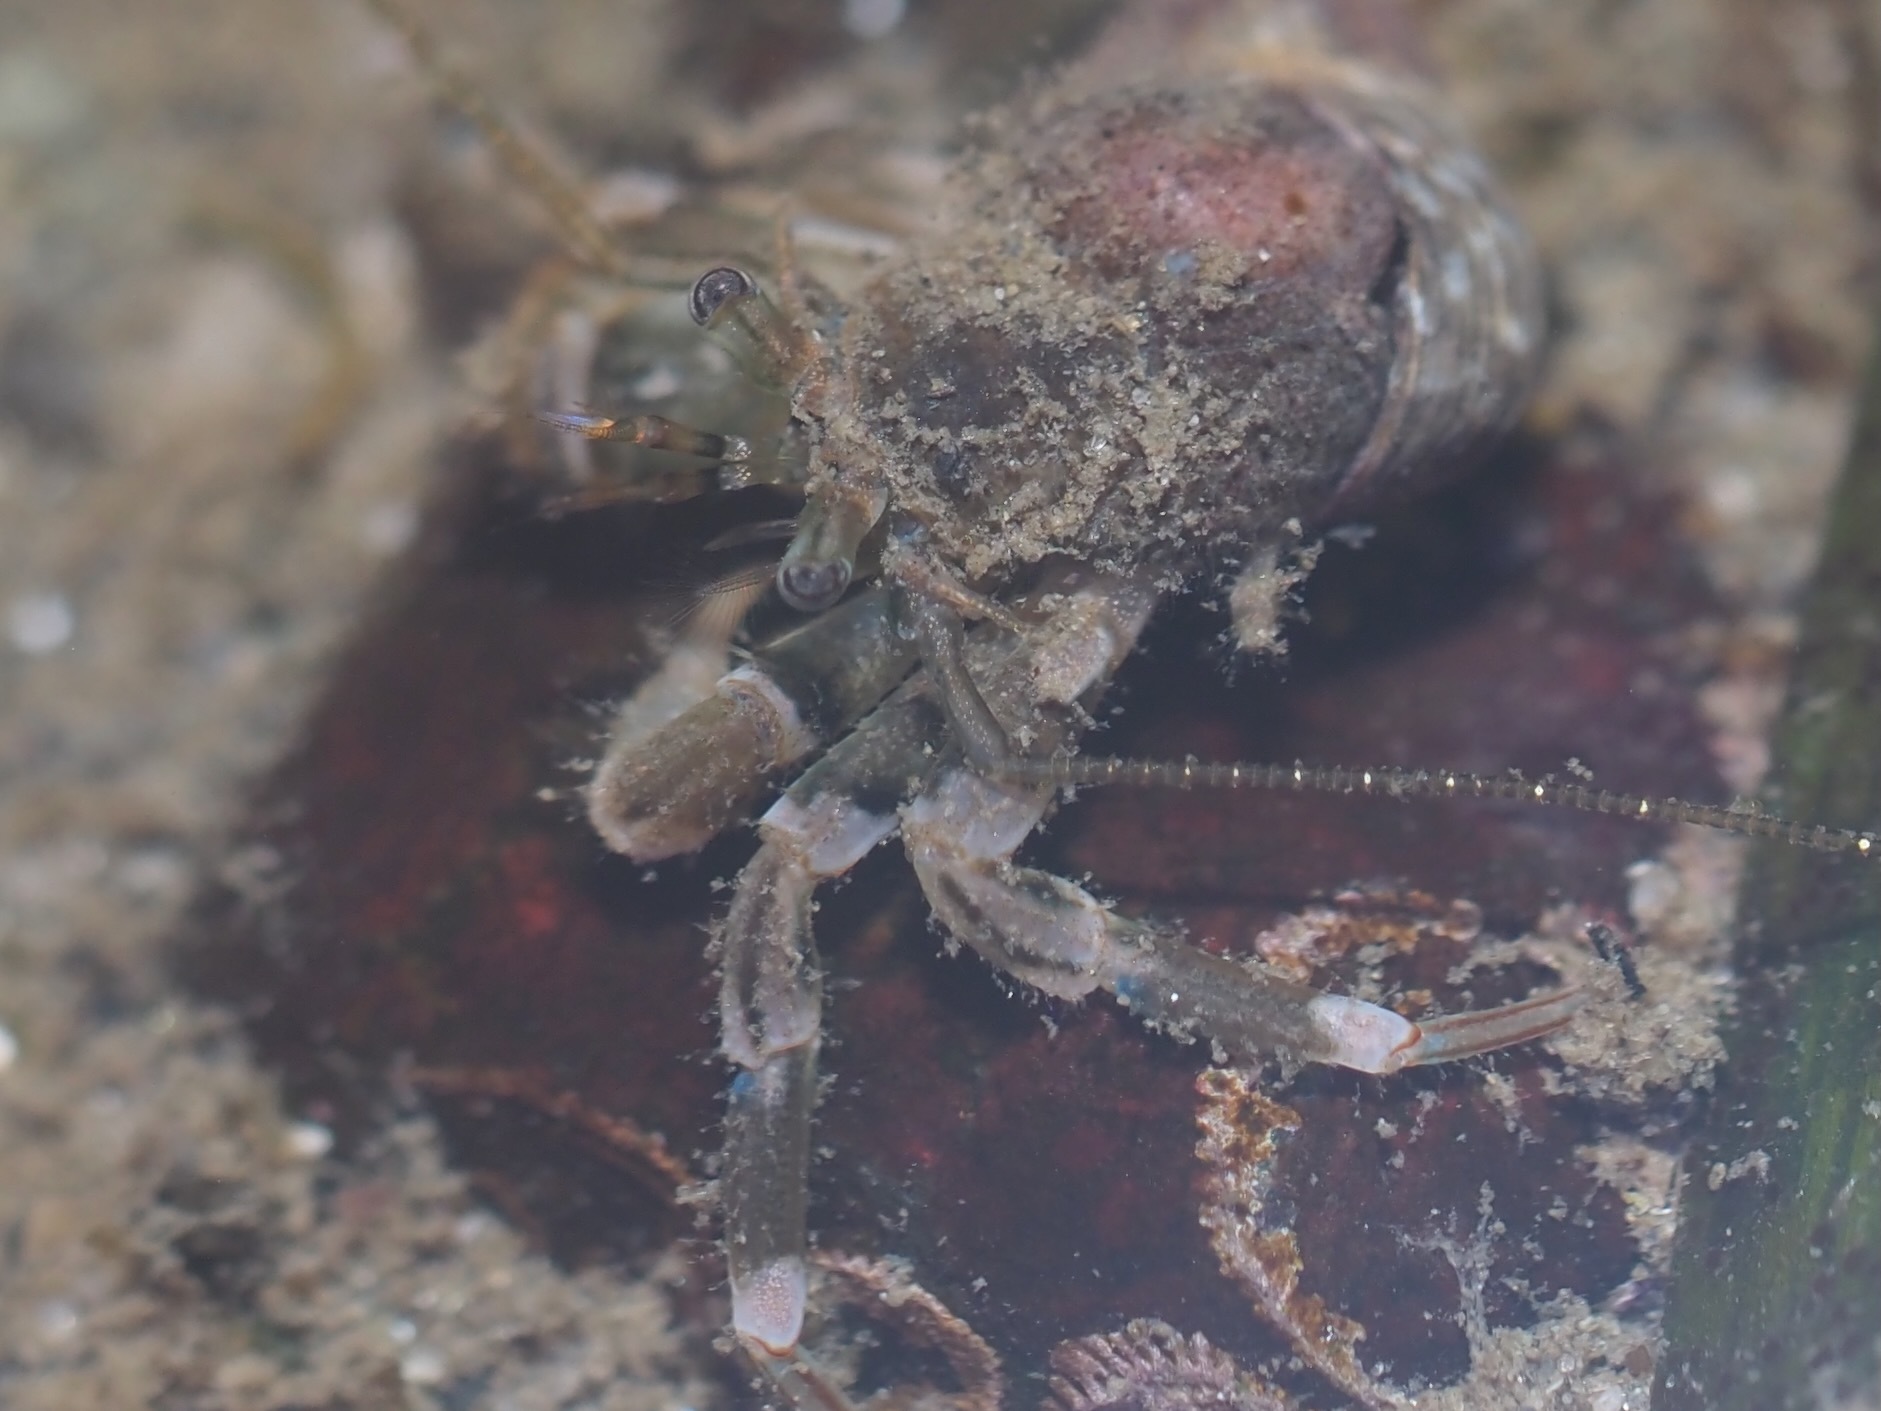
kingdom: Animalia
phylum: Arthropoda
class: Malacostraca
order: Decapoda
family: Paguridae
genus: Pagurus
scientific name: Pagurus hirsutiusculus
